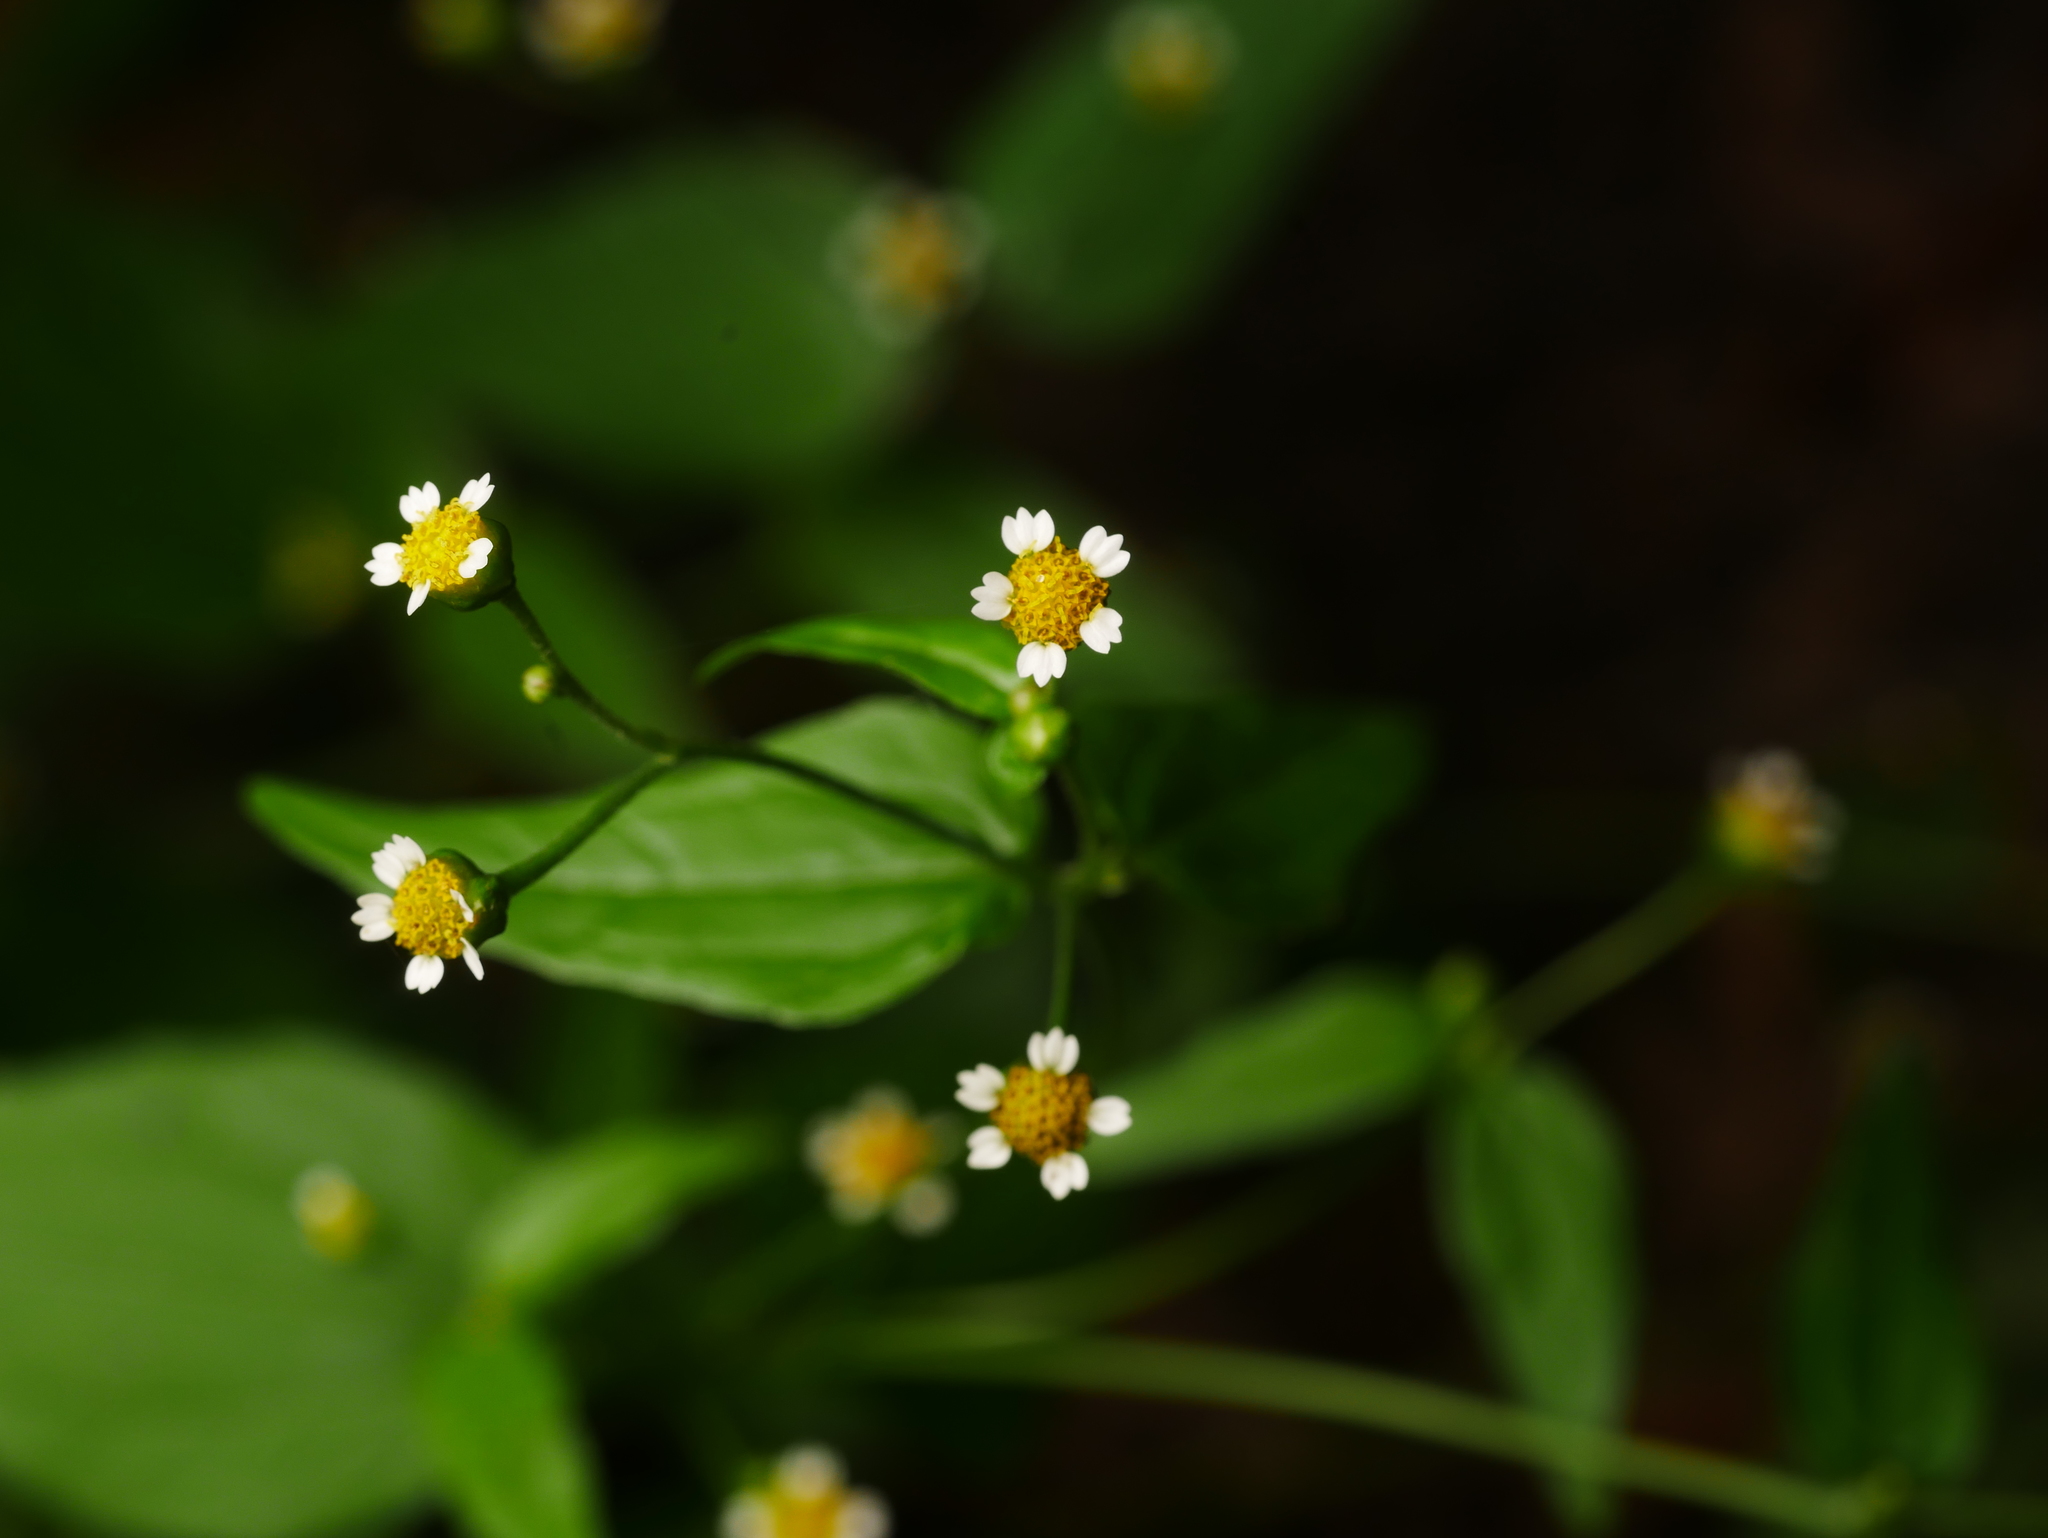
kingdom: Plantae
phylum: Tracheophyta
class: Magnoliopsida
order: Asterales
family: Asteraceae
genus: Galinsoga
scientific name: Galinsoga parviflora
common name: Gallant soldier
